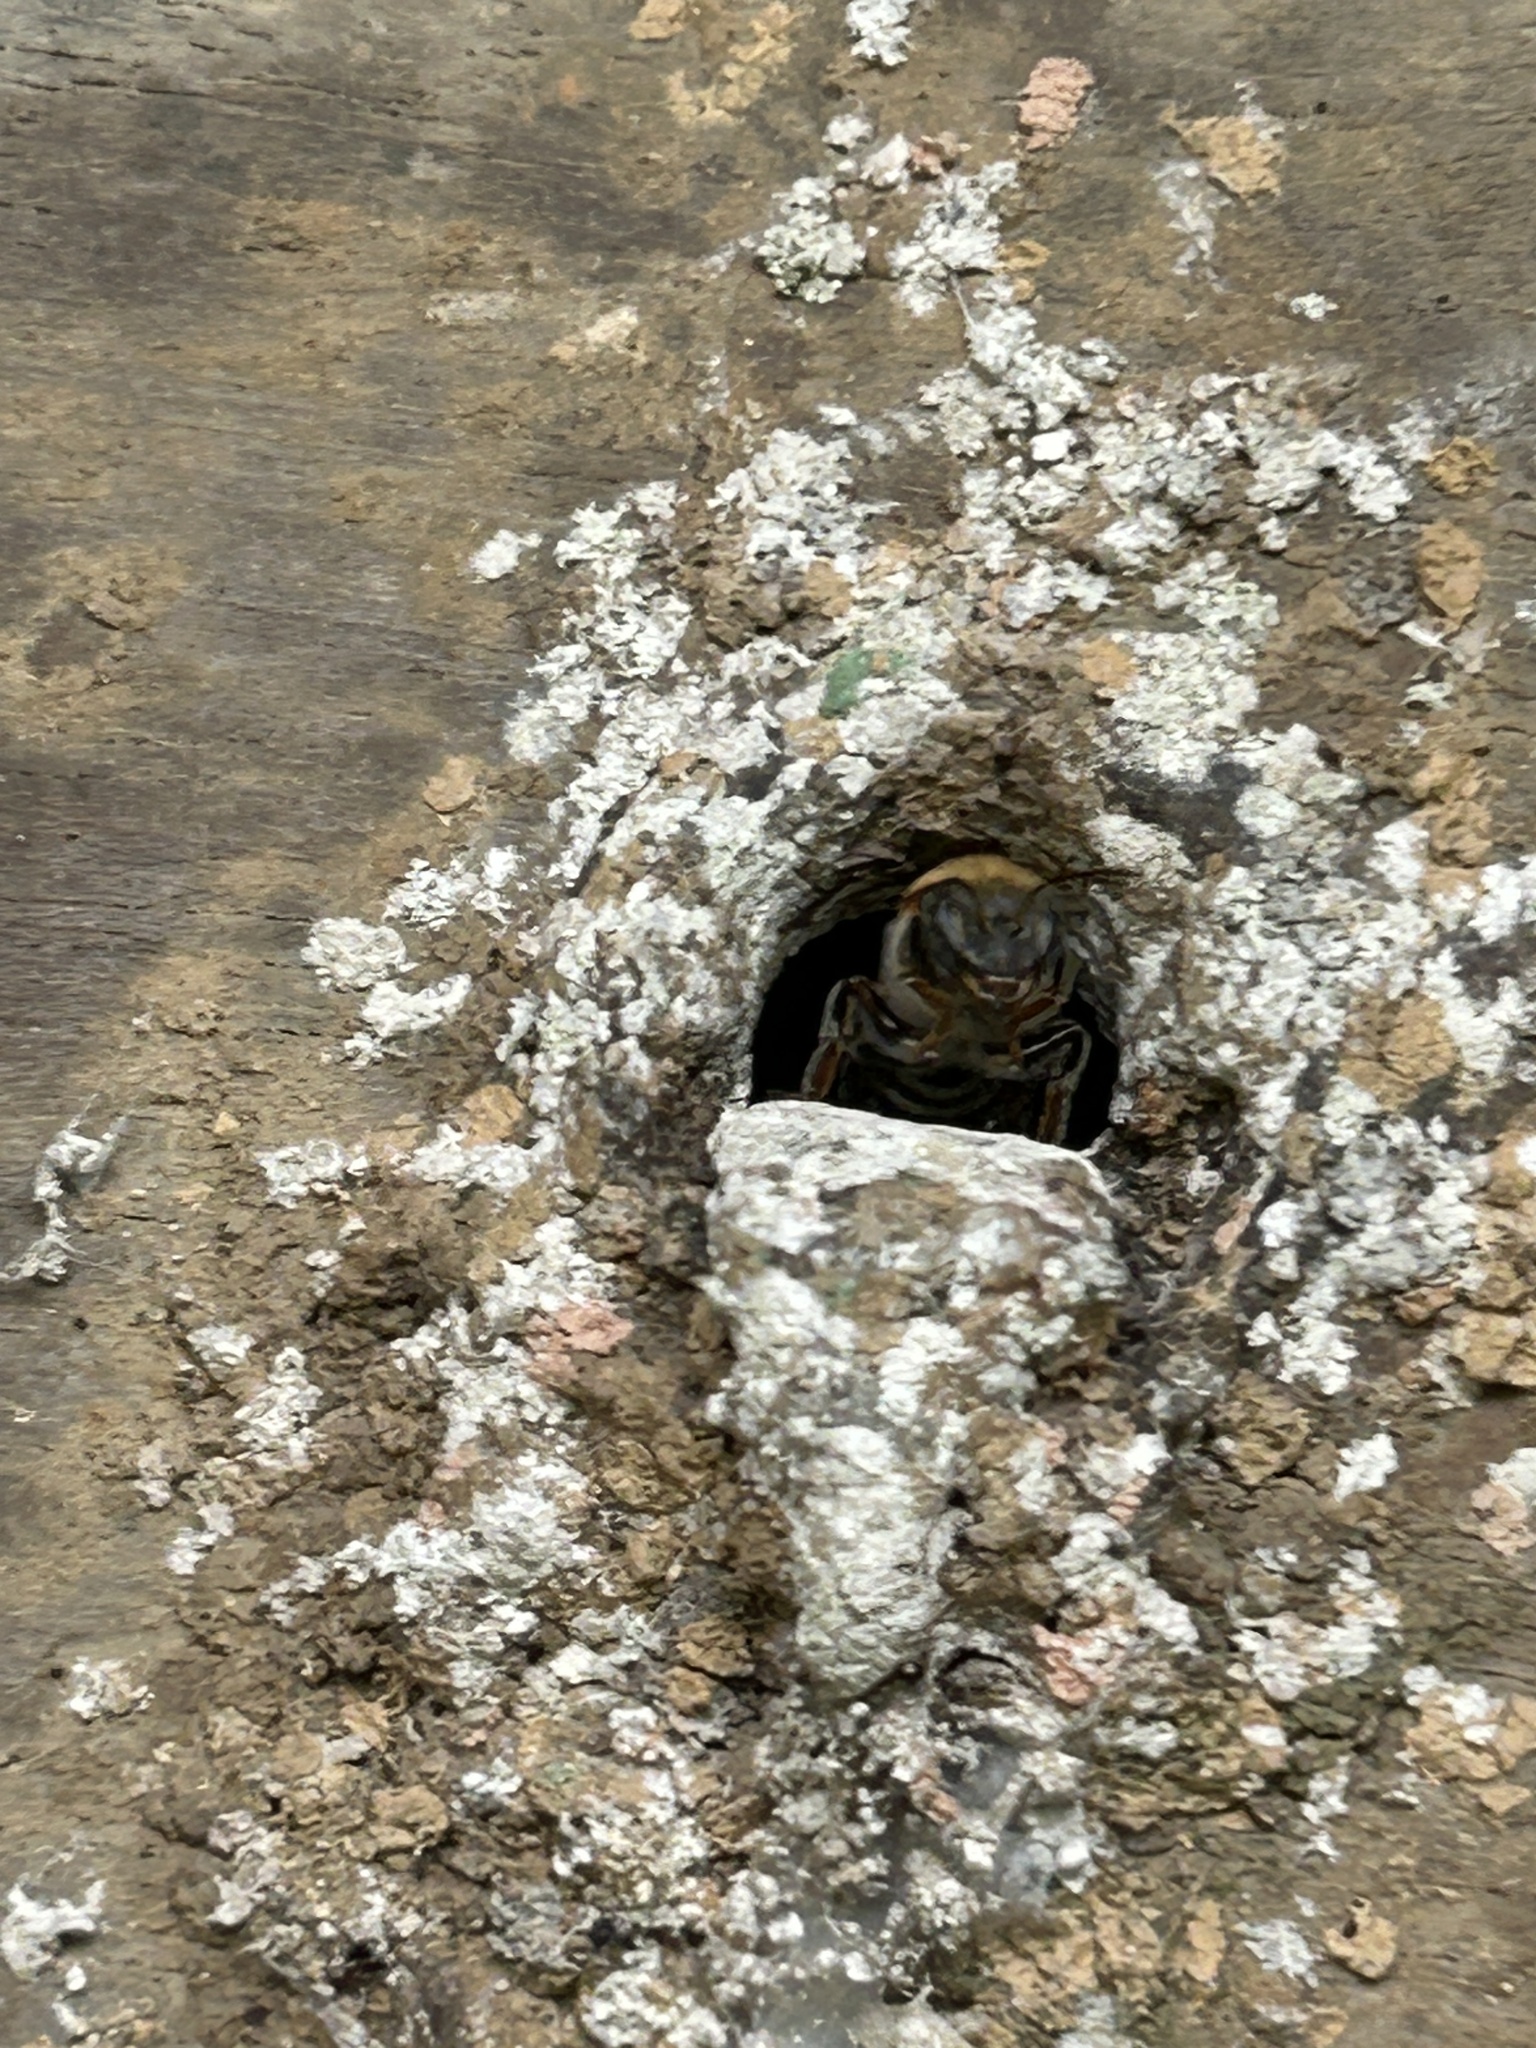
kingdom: Animalia
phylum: Arthropoda
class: Insecta
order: Hymenoptera
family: Apidae
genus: Melipona
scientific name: Melipona beecheii
